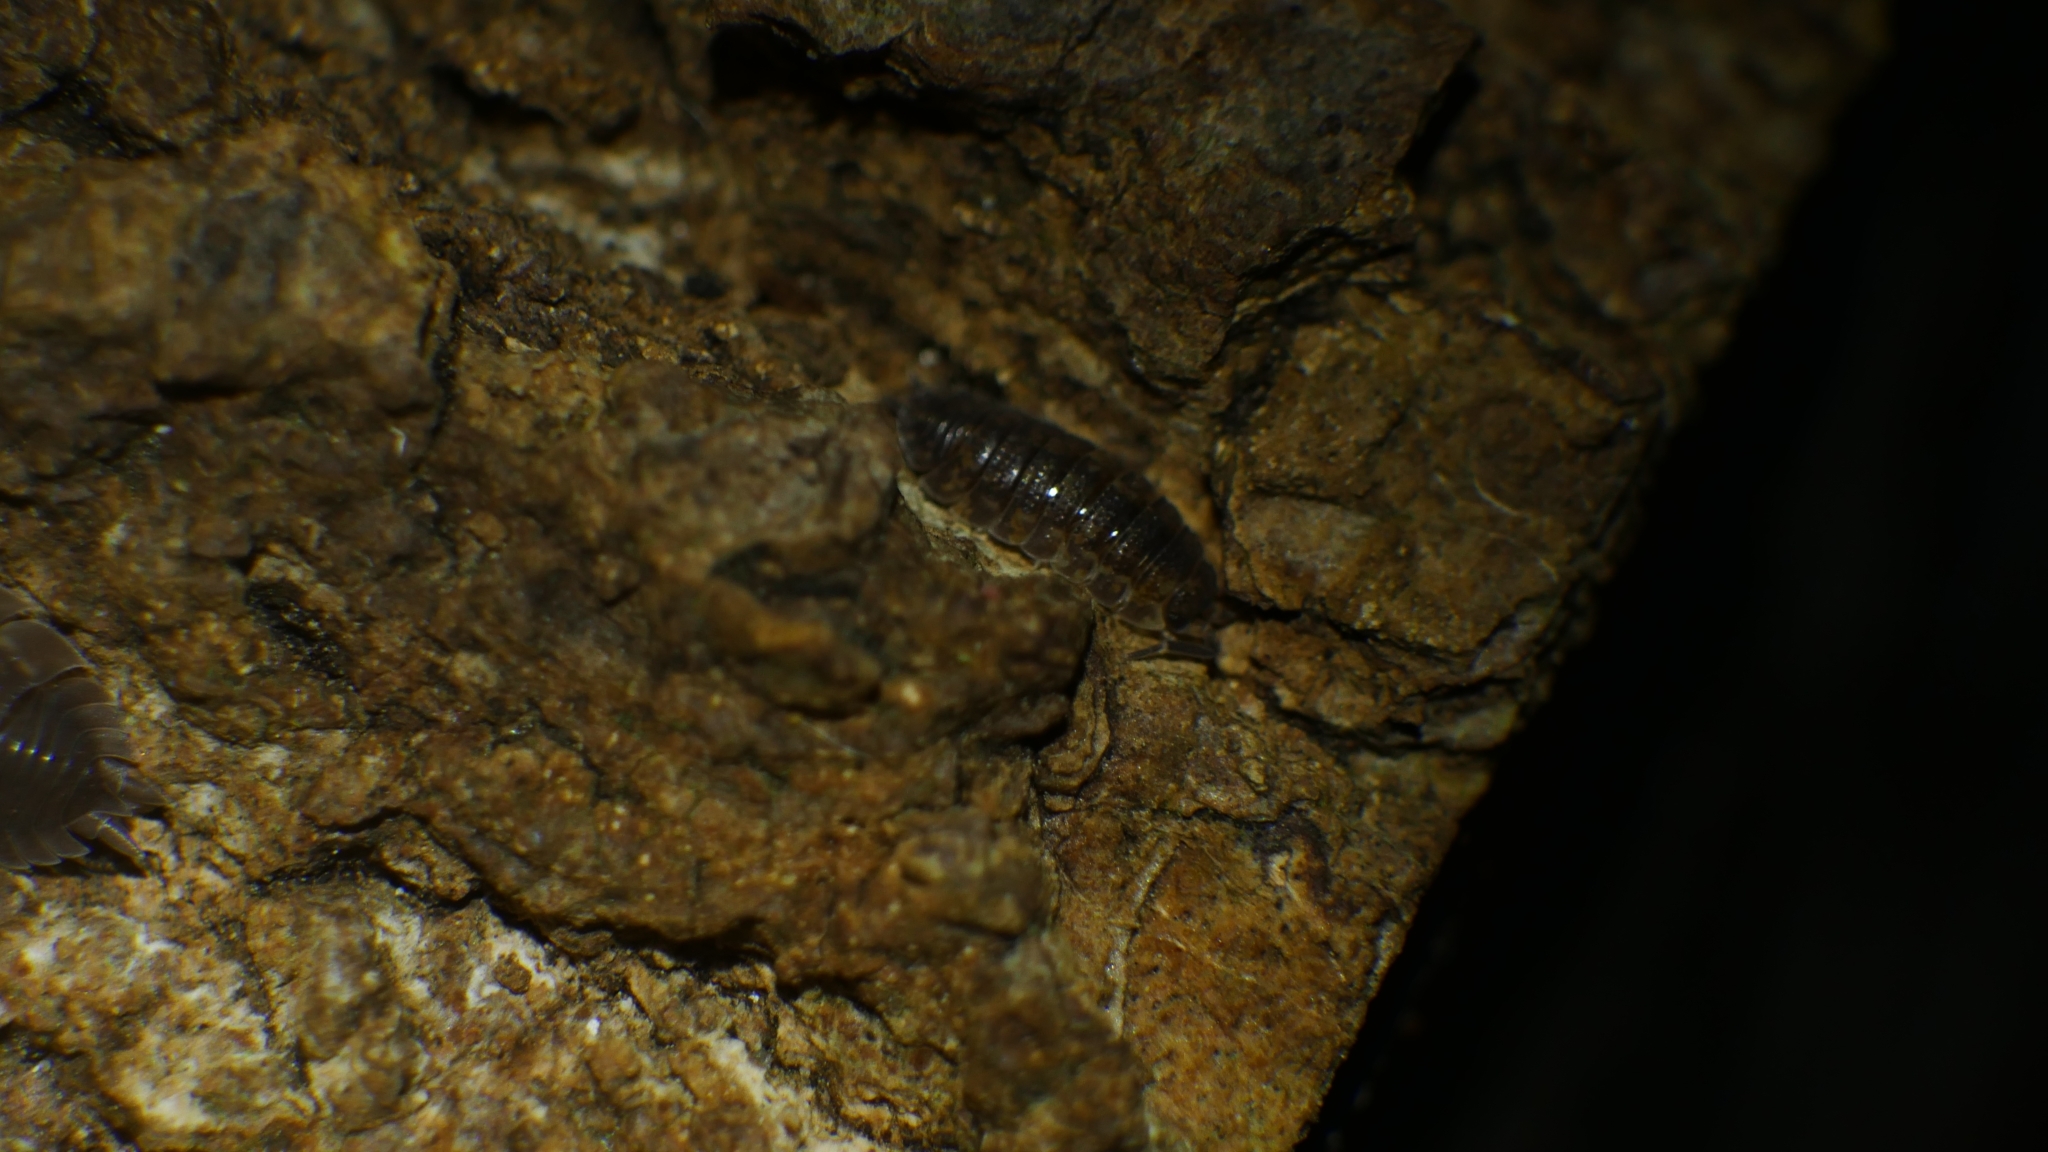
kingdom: Animalia
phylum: Arthropoda
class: Malacostraca
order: Isopoda
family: Porcellionidae
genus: Porcellio
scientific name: Porcellio scaber
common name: Common rough woodlouse
